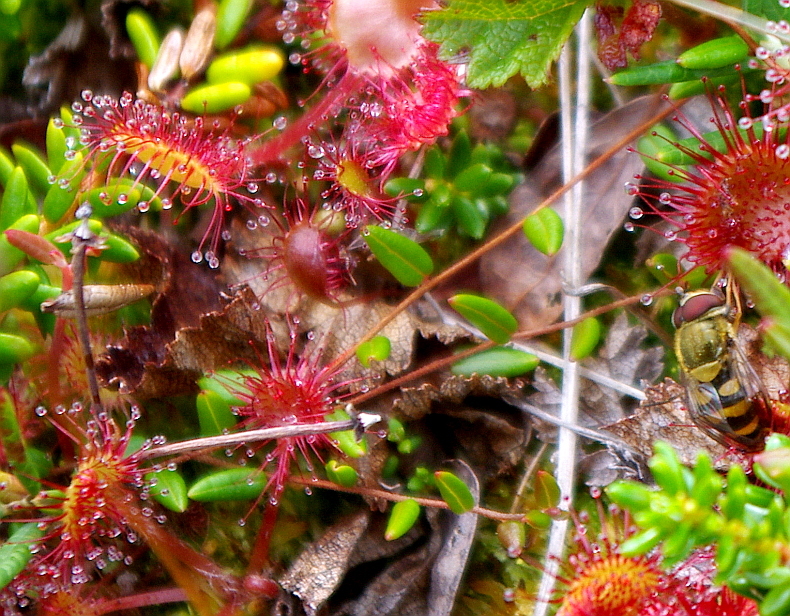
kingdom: Plantae
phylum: Tracheophyta
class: Magnoliopsida
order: Ericales
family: Ericaceae
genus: Vaccinium
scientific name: Vaccinium oxycoccos
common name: Cranberry
